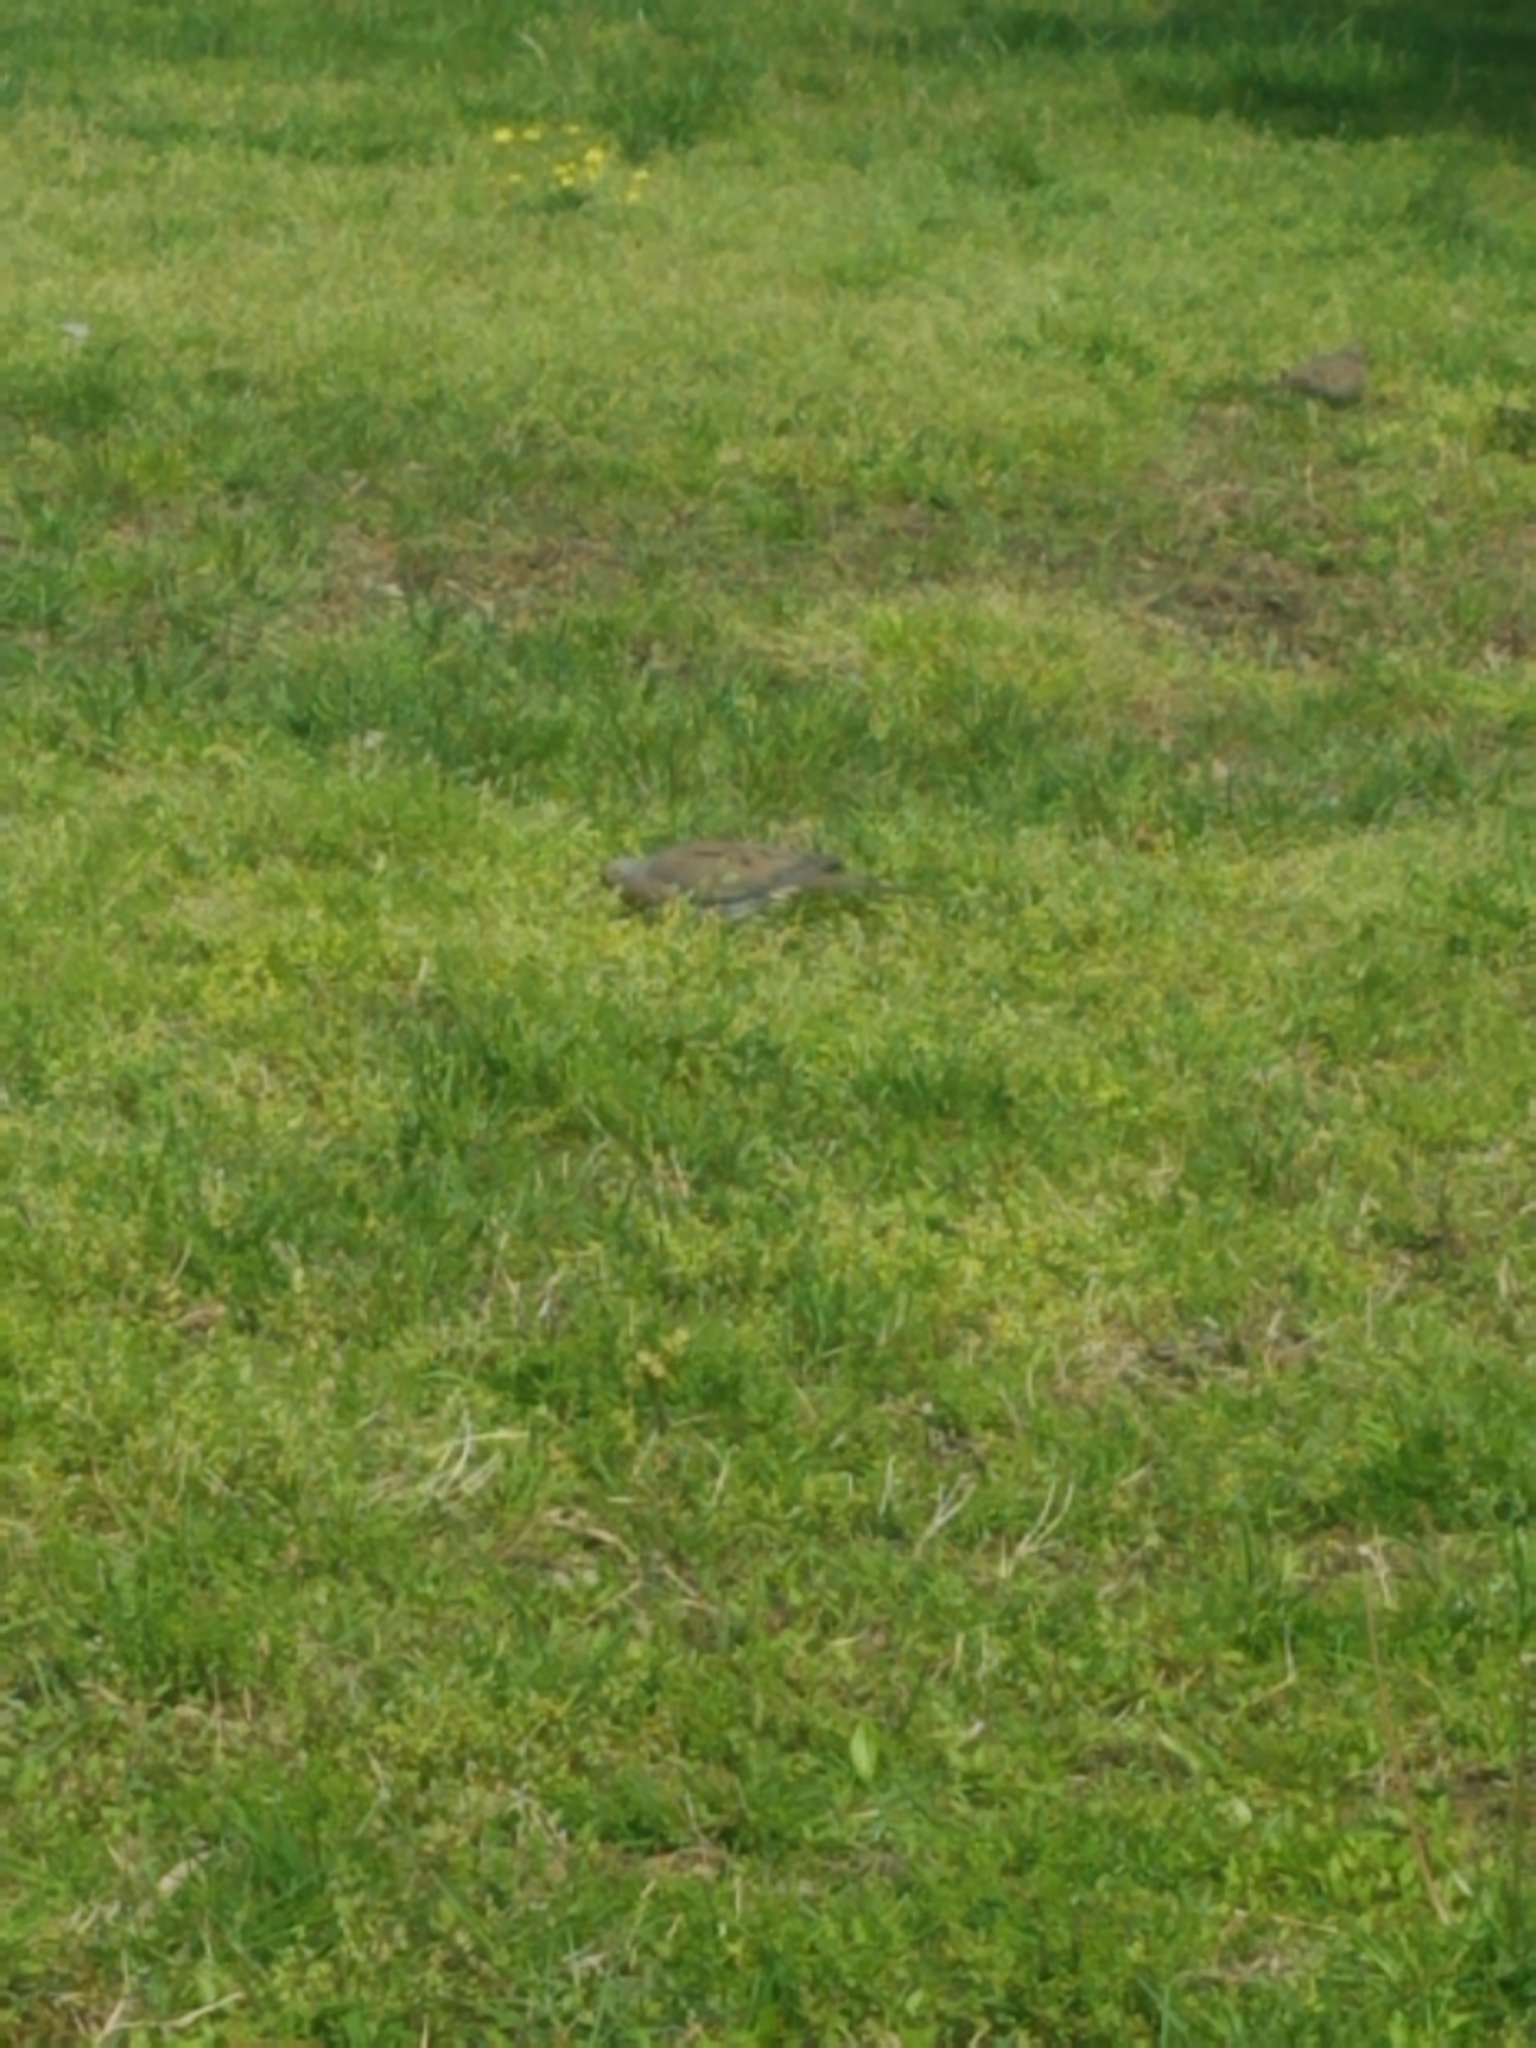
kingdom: Animalia
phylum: Chordata
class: Aves
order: Columbiformes
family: Columbidae
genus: Zenaida
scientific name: Zenaida macroura
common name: Mourning dove
